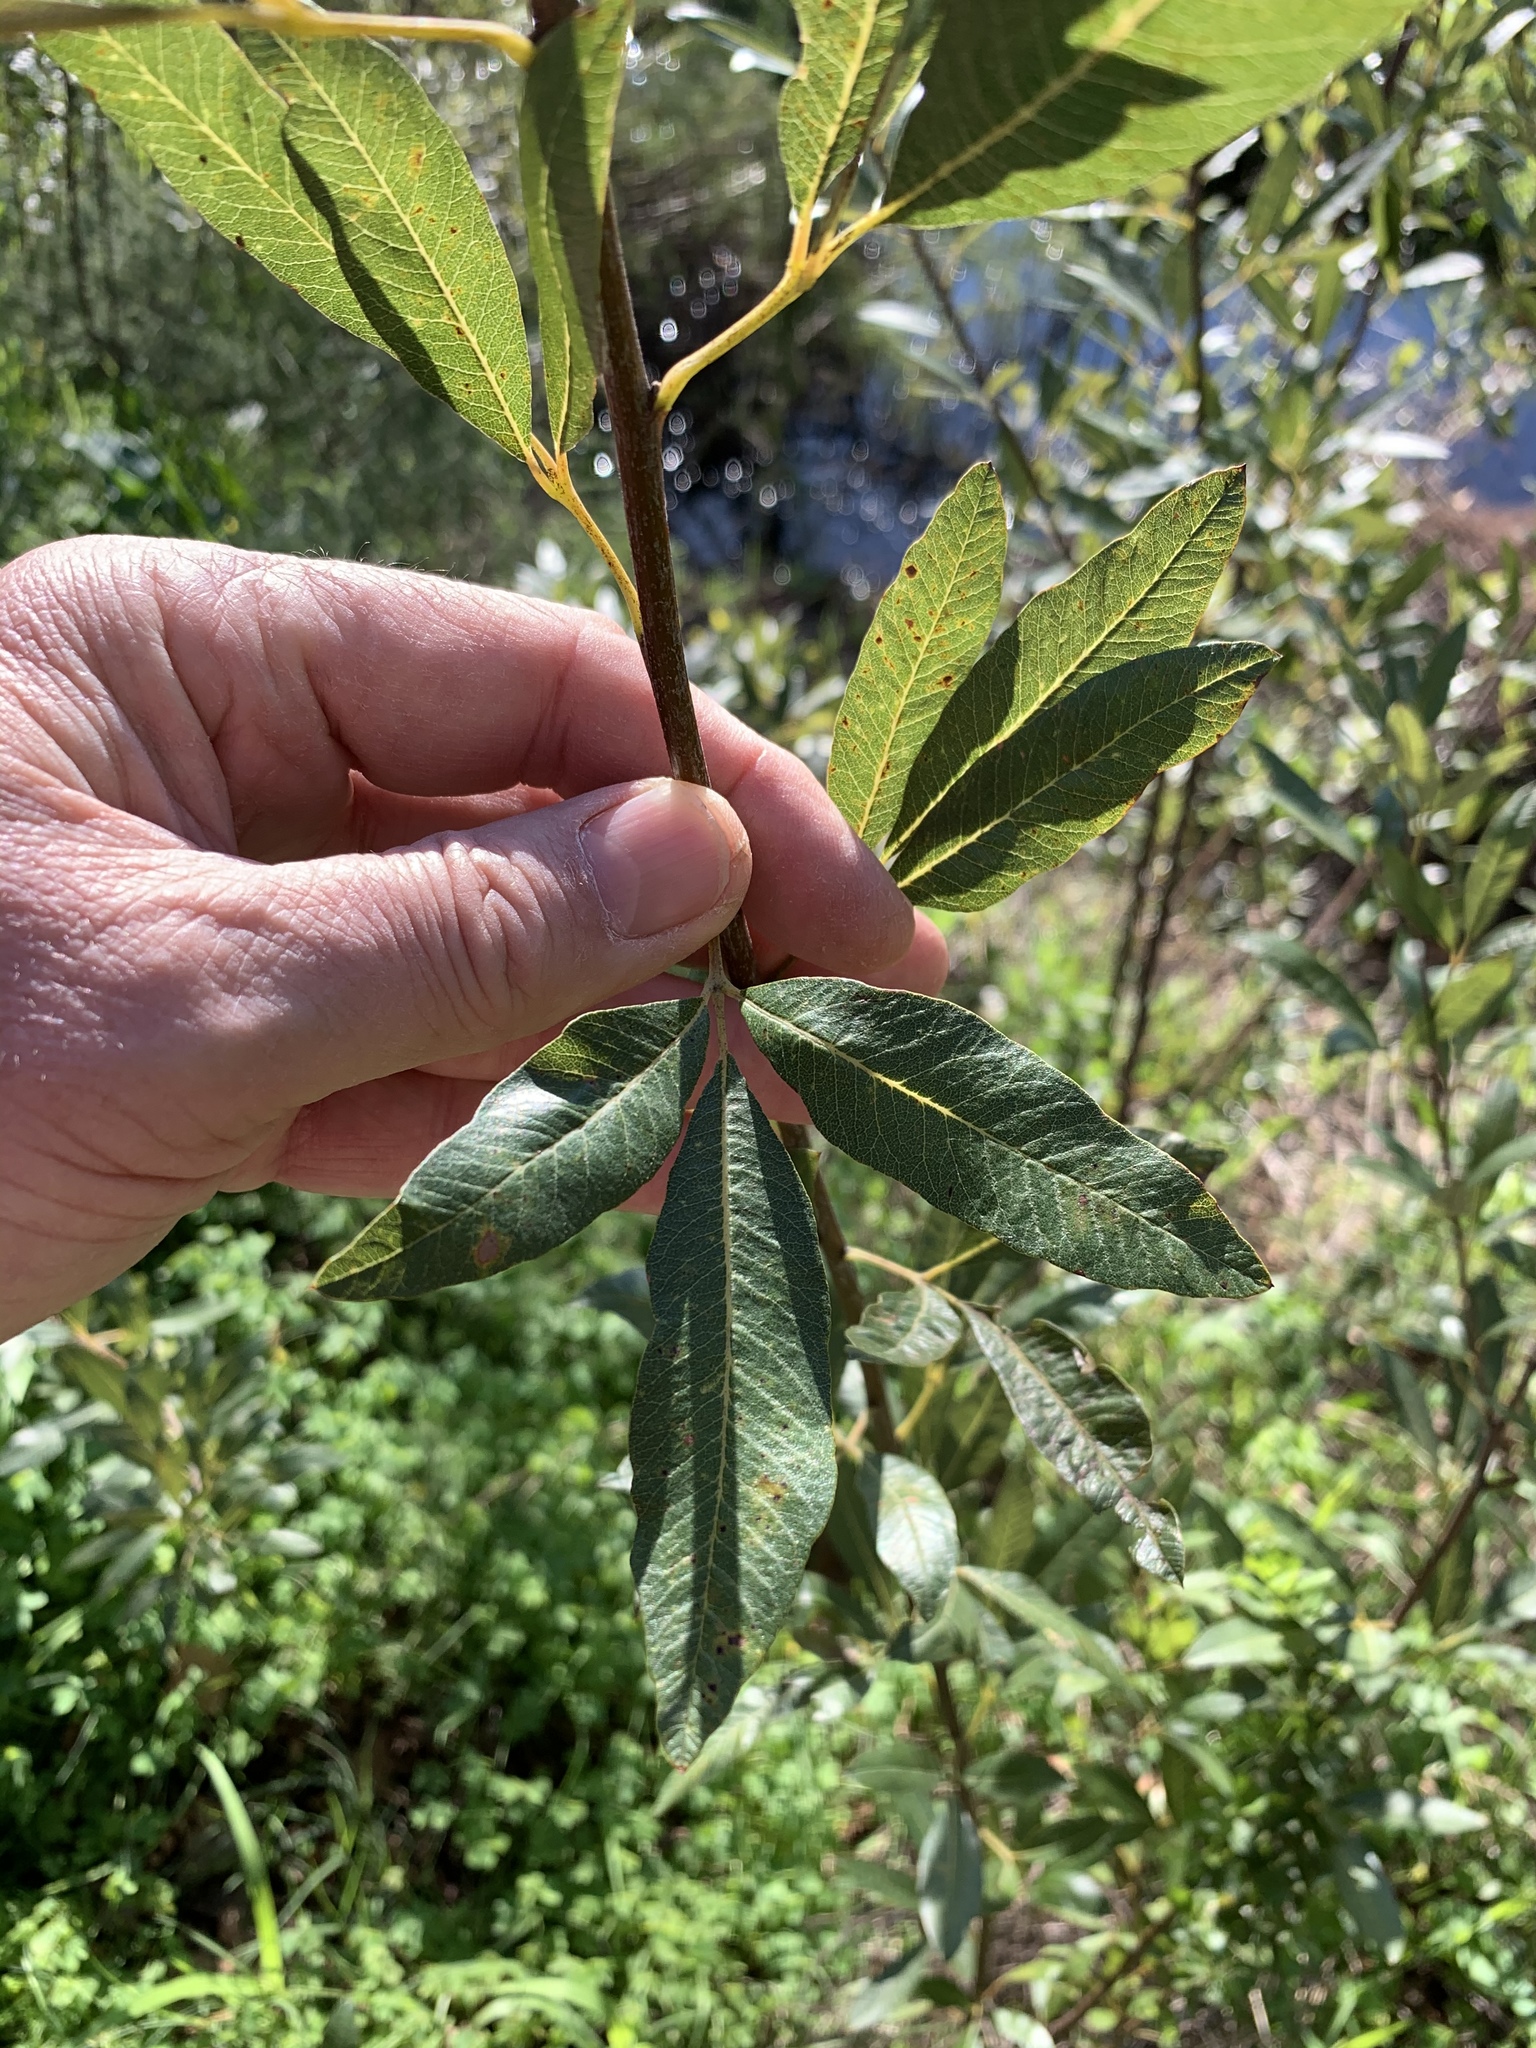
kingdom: Plantae
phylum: Tracheophyta
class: Magnoliopsida
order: Sapindales
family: Anacardiaceae
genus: Searsia
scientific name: Searsia angustifolia
